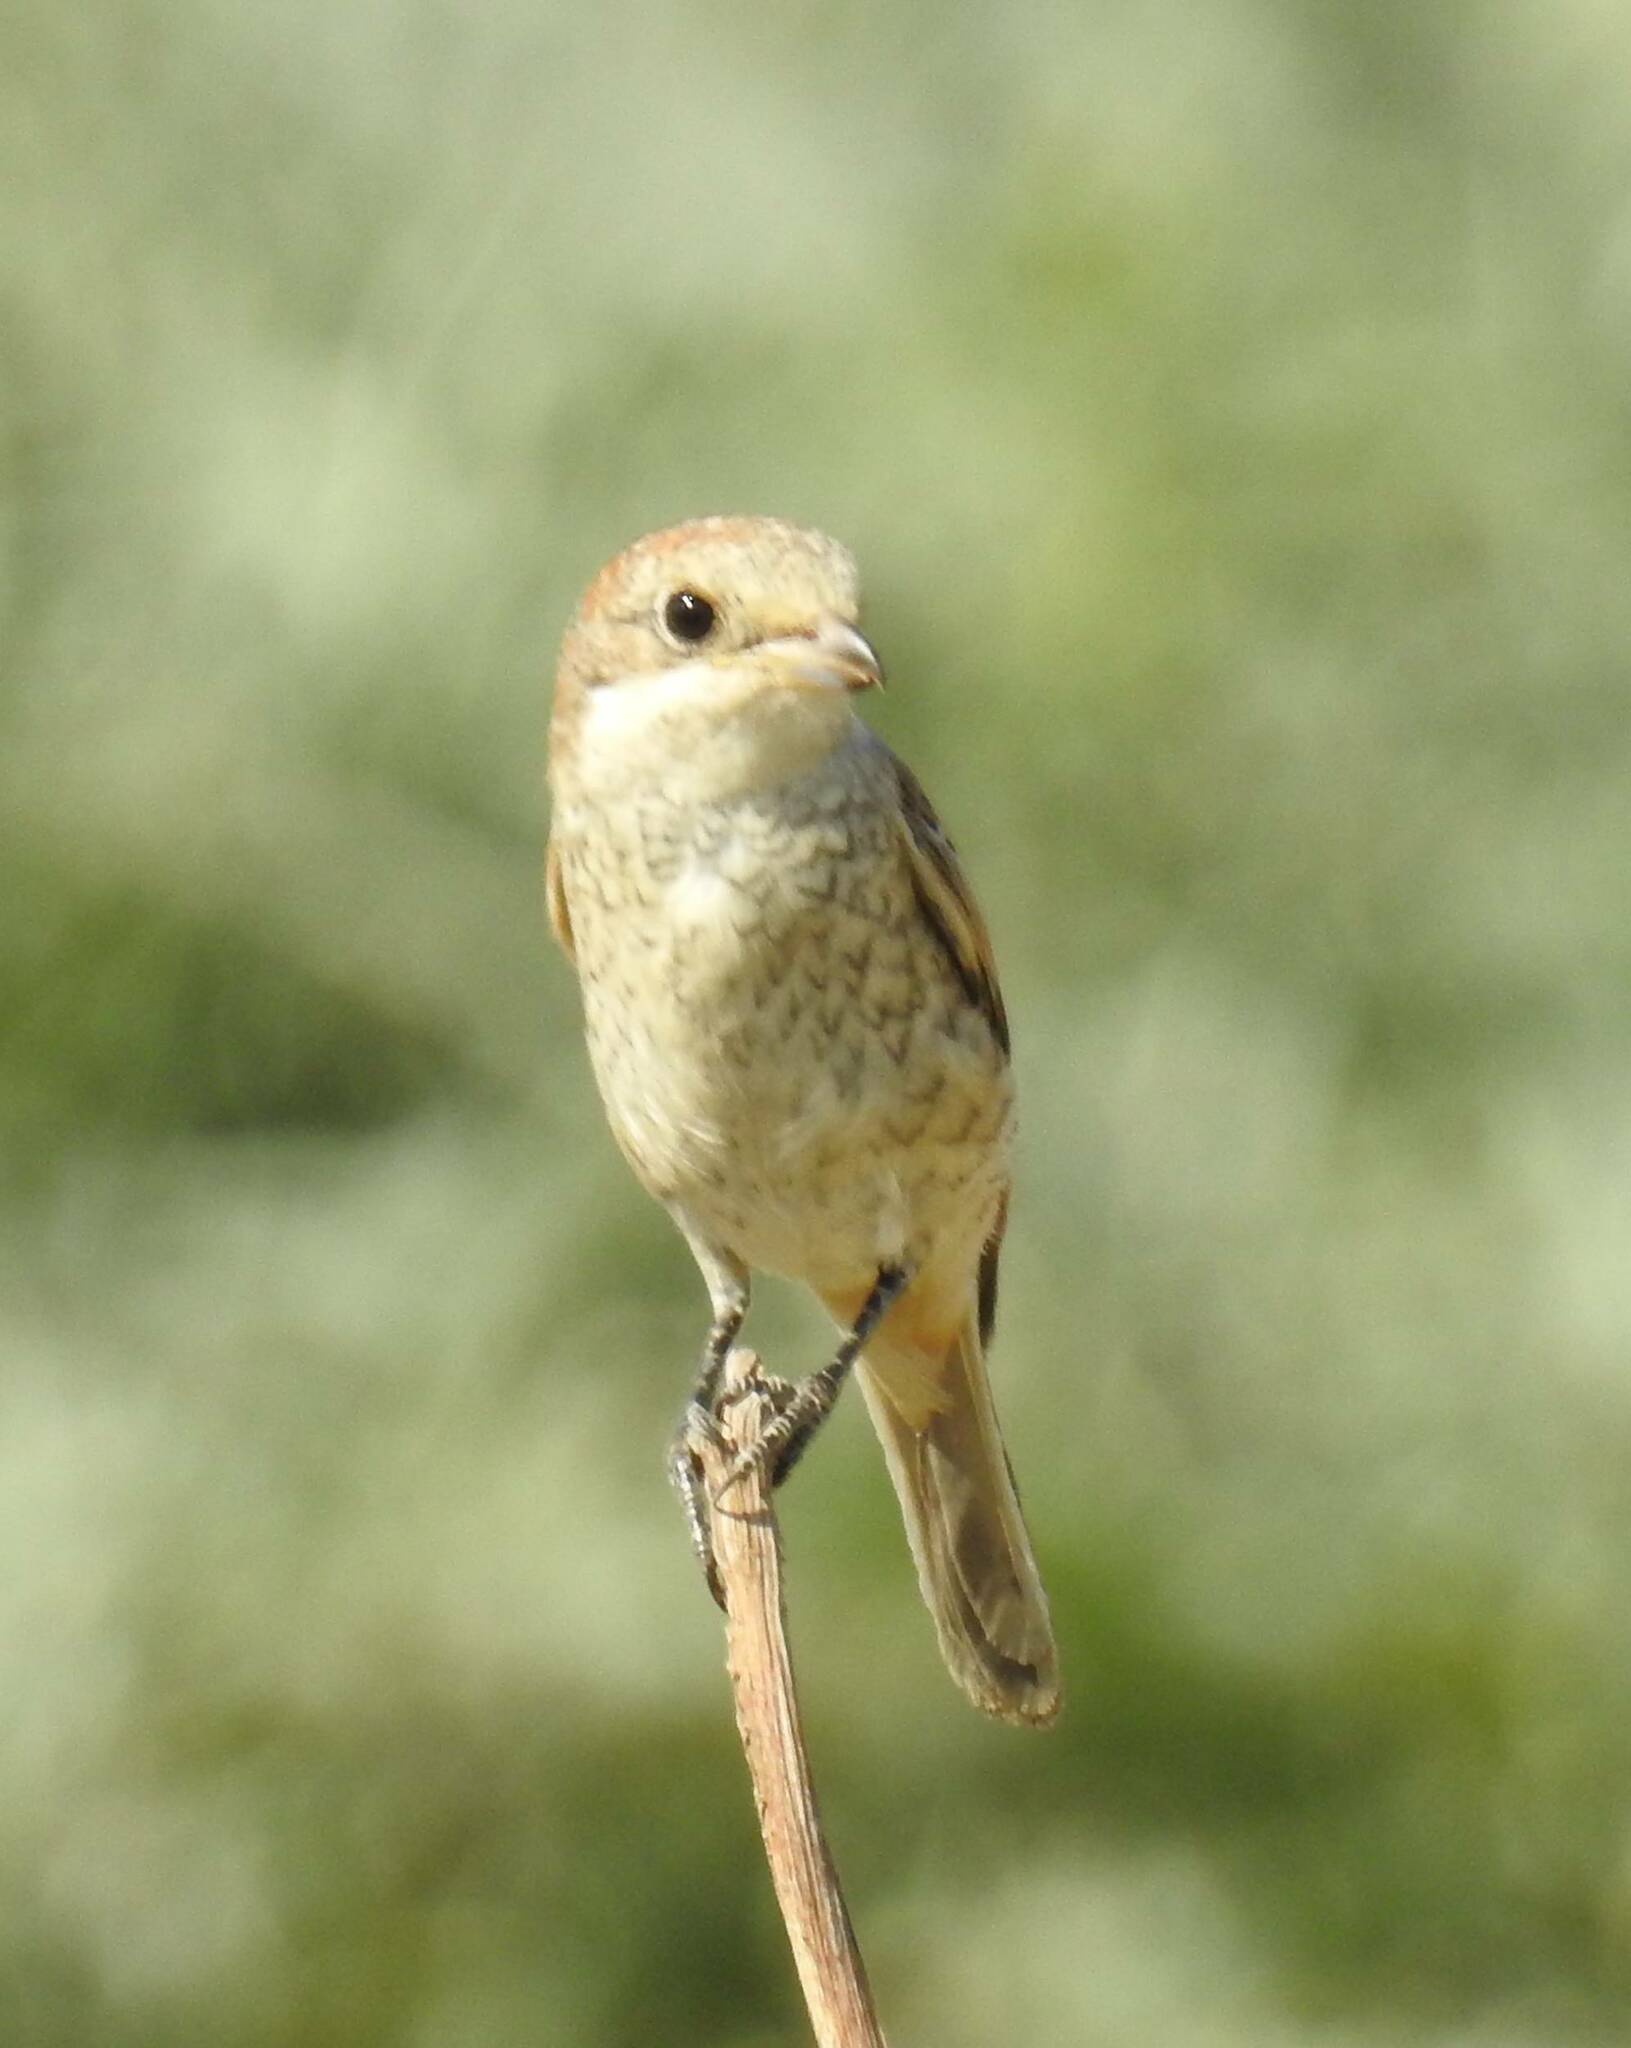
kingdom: Animalia
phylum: Chordata
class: Aves
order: Passeriformes
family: Laniidae
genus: Lanius
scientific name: Lanius senator
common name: Woodchat shrike
